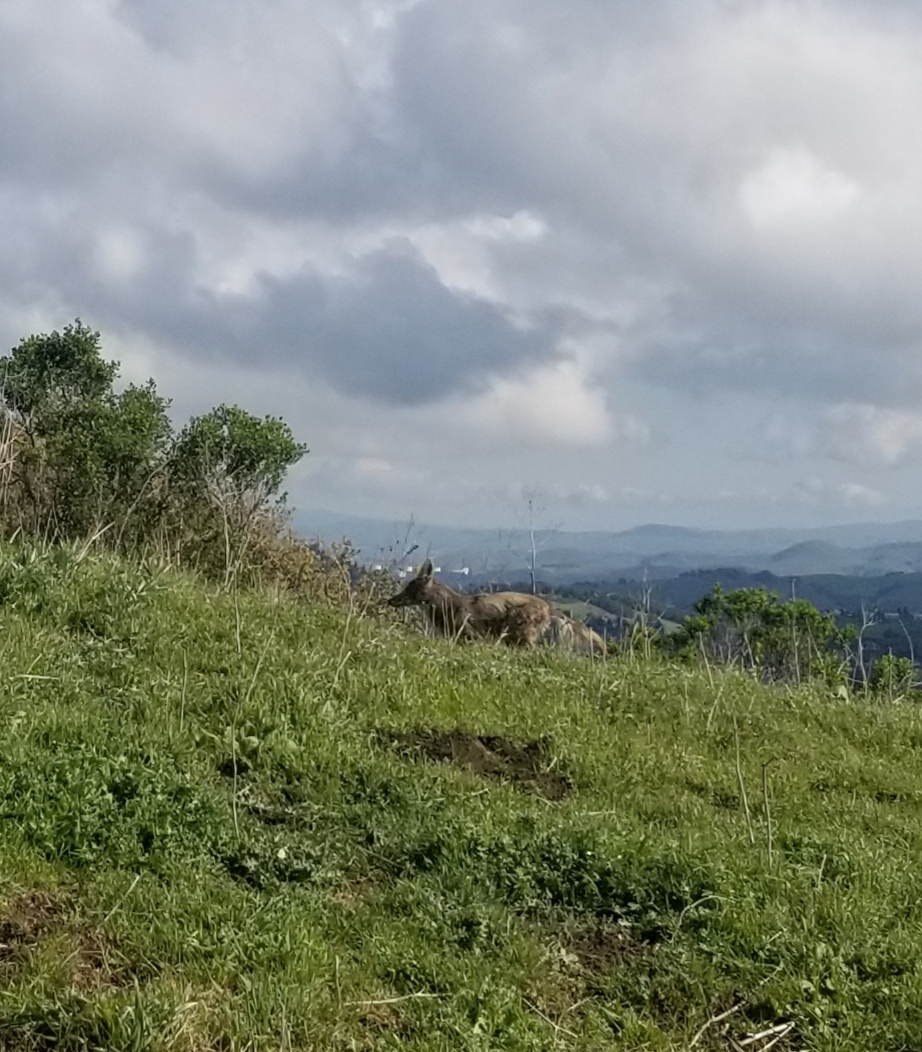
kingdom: Animalia
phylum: Chordata
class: Mammalia
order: Carnivora
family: Canidae
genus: Canis
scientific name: Canis latrans
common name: Coyote
